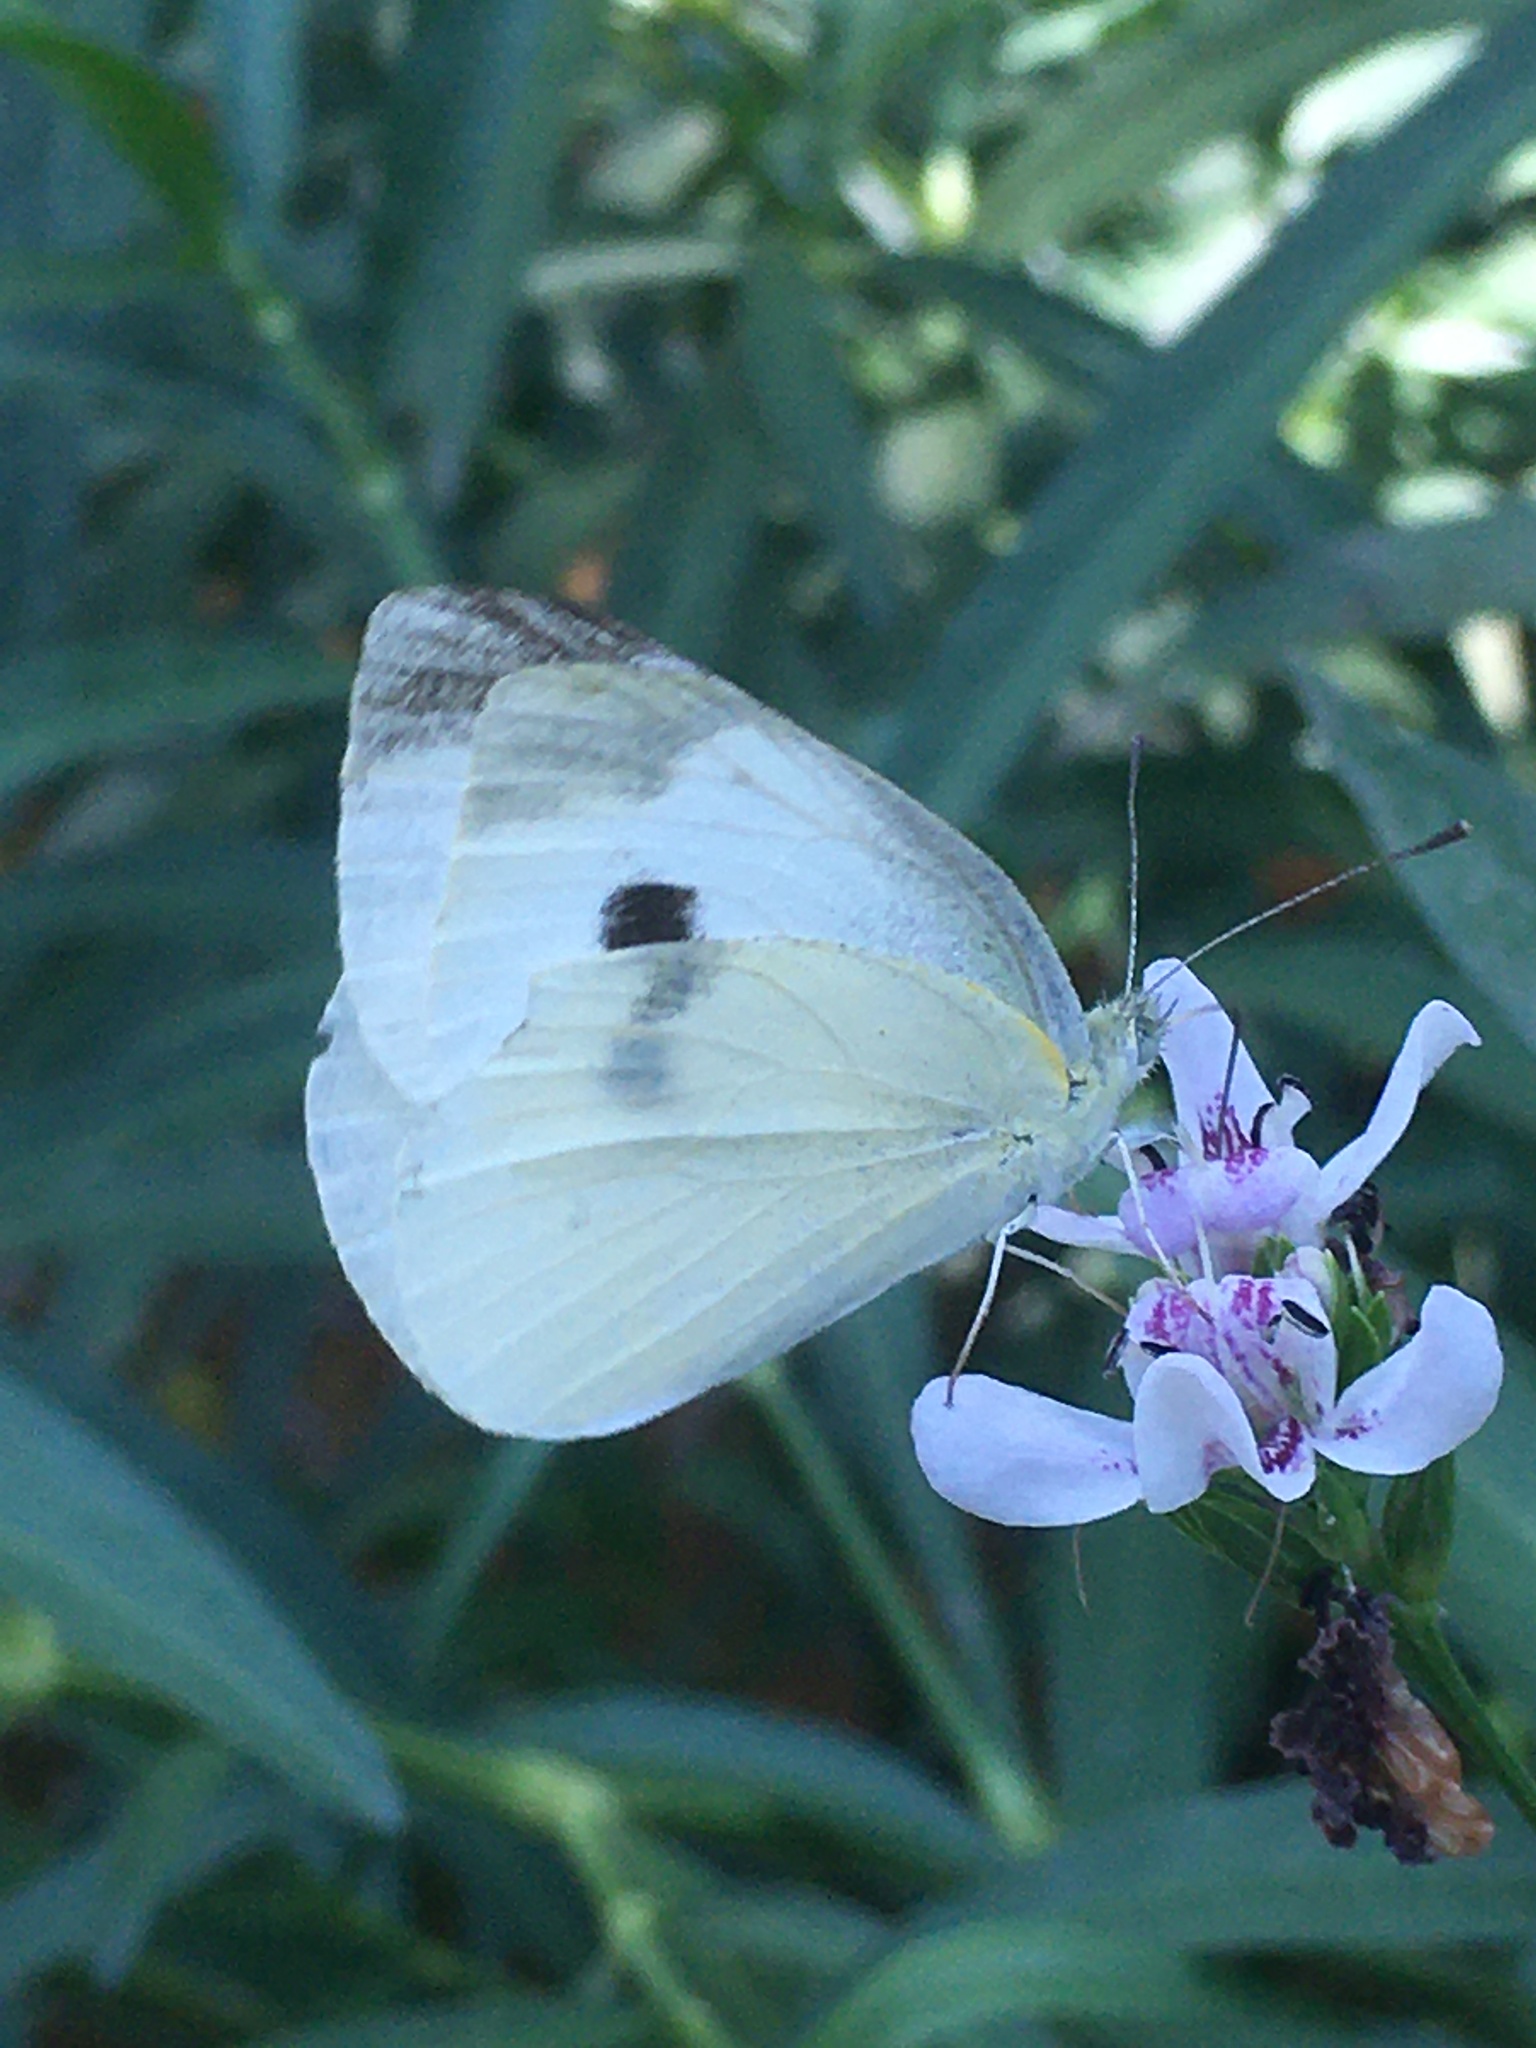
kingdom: Animalia
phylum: Arthropoda
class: Insecta
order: Lepidoptera
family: Pieridae
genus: Pieris
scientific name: Pieris rapae
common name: Small white
